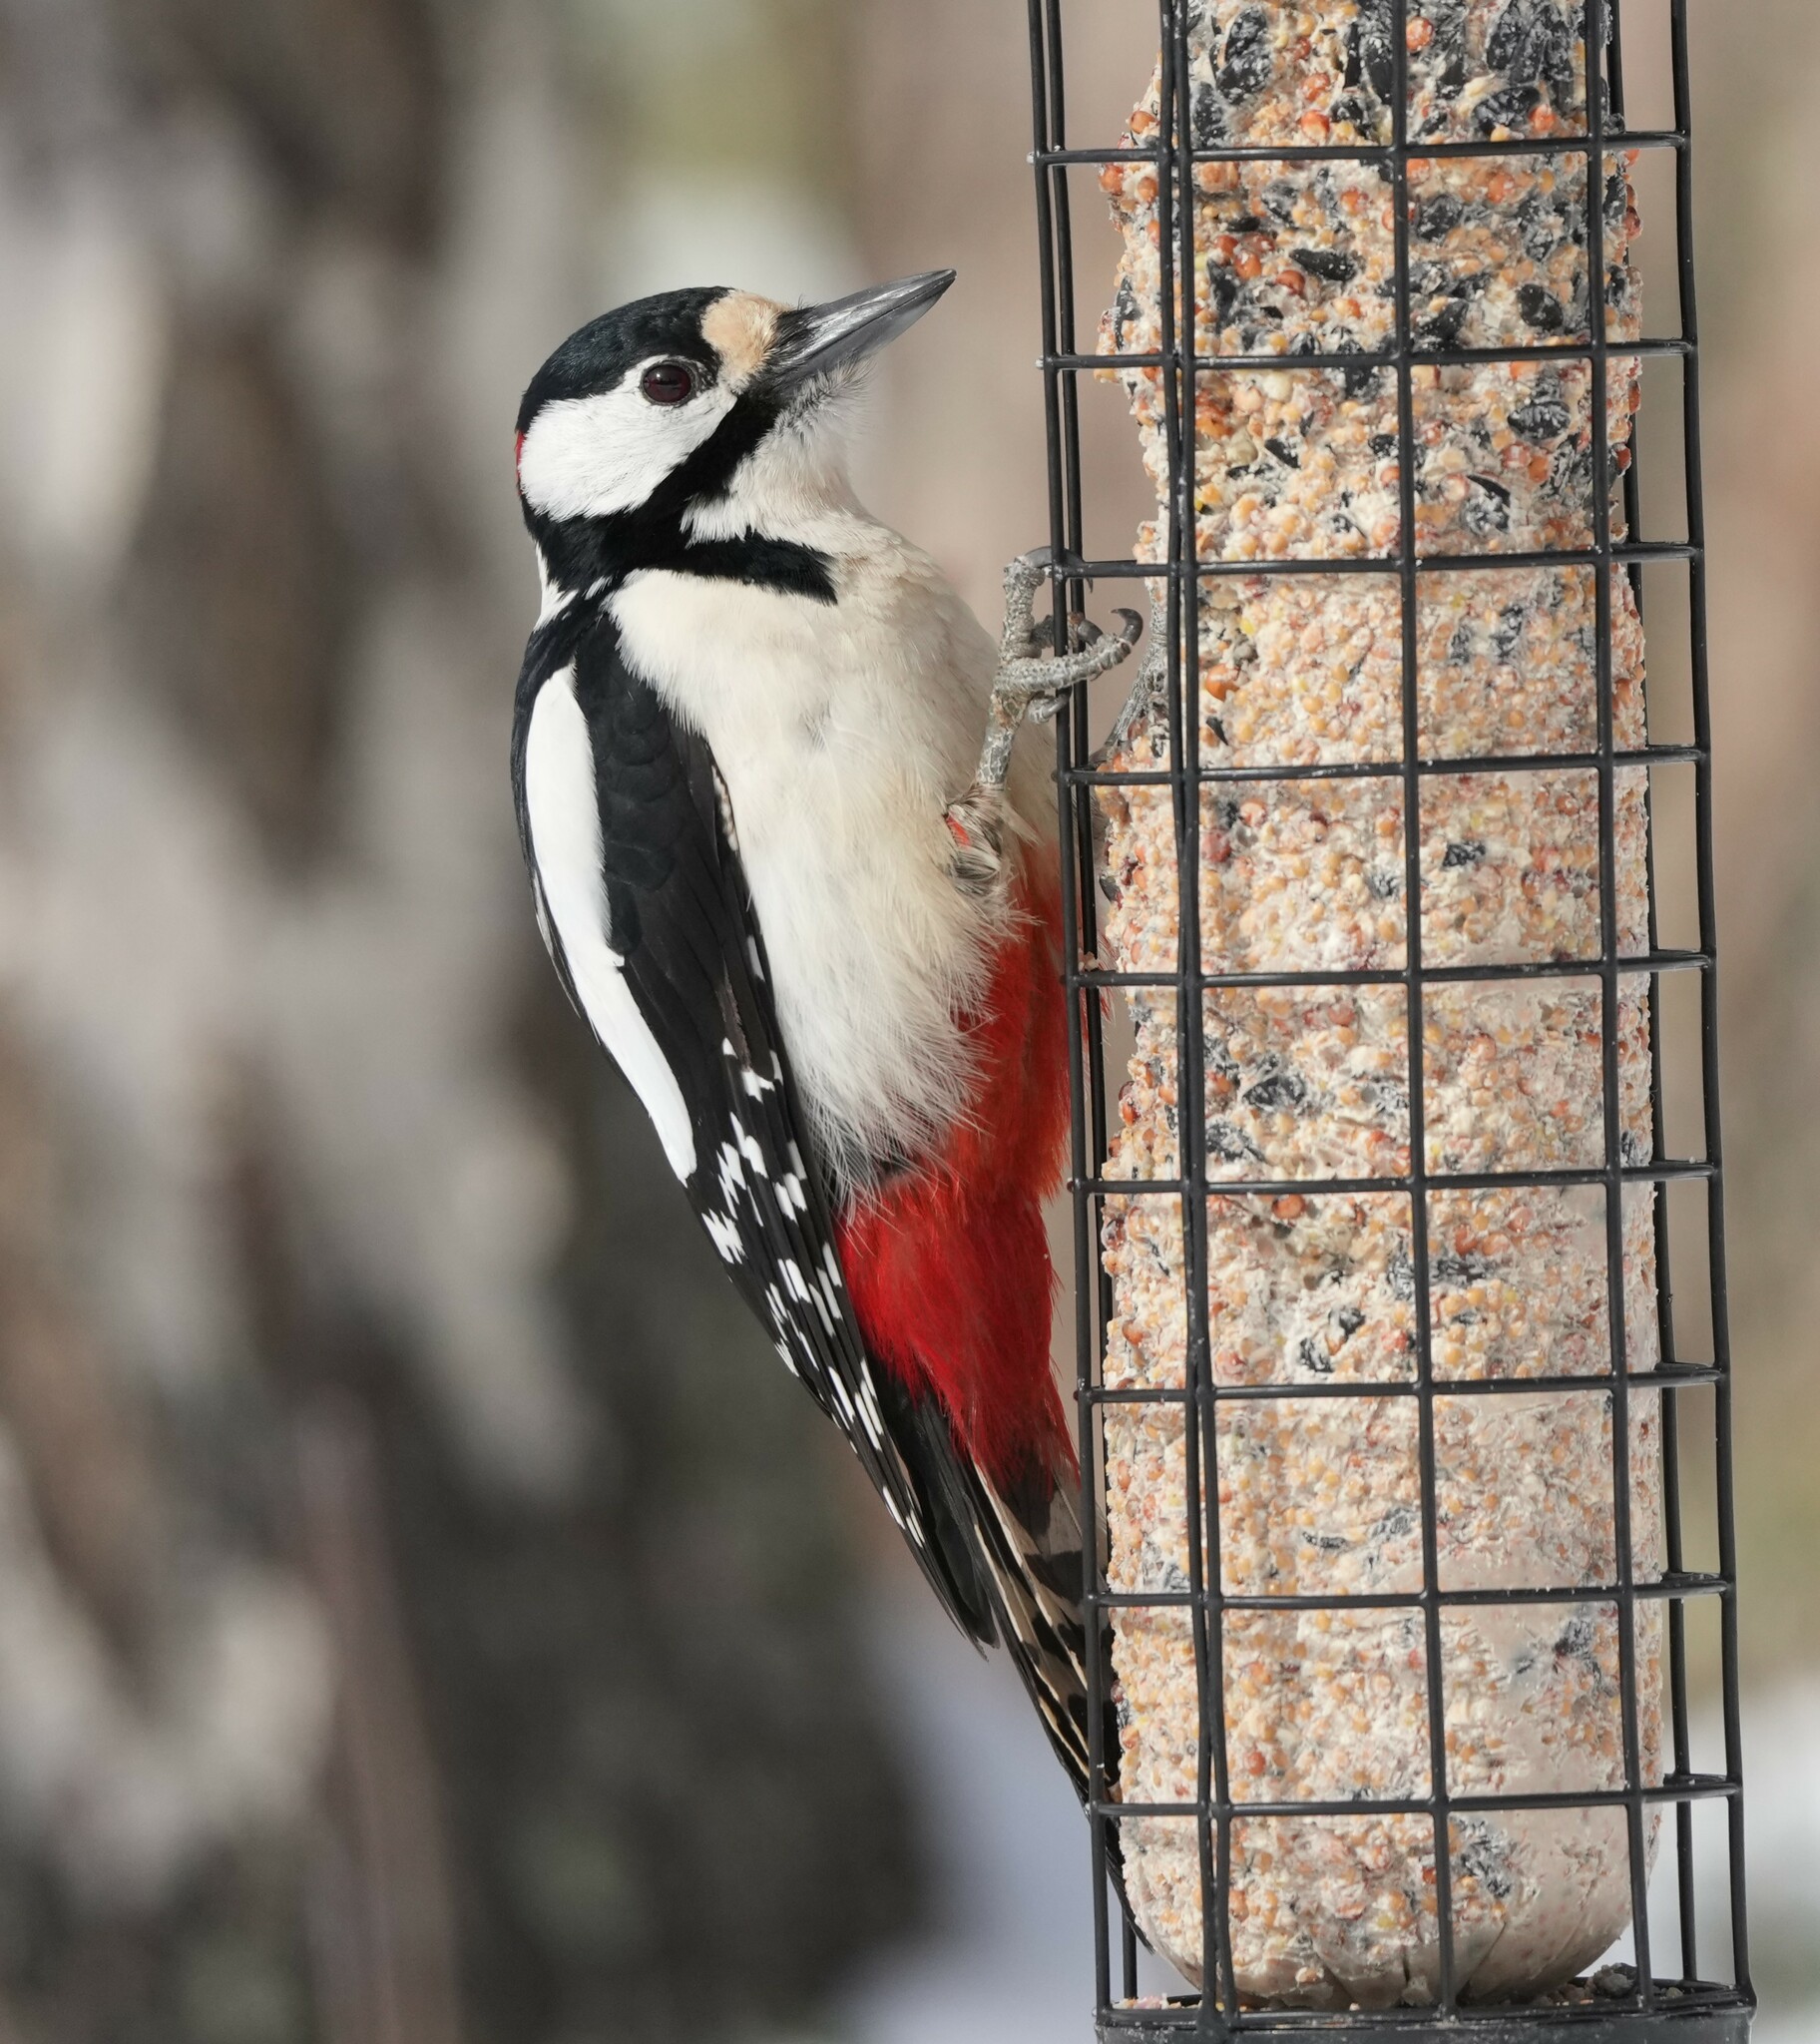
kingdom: Animalia
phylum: Chordata
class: Aves
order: Piciformes
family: Picidae
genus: Dendrocopos
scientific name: Dendrocopos major
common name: Great spotted woodpecker
